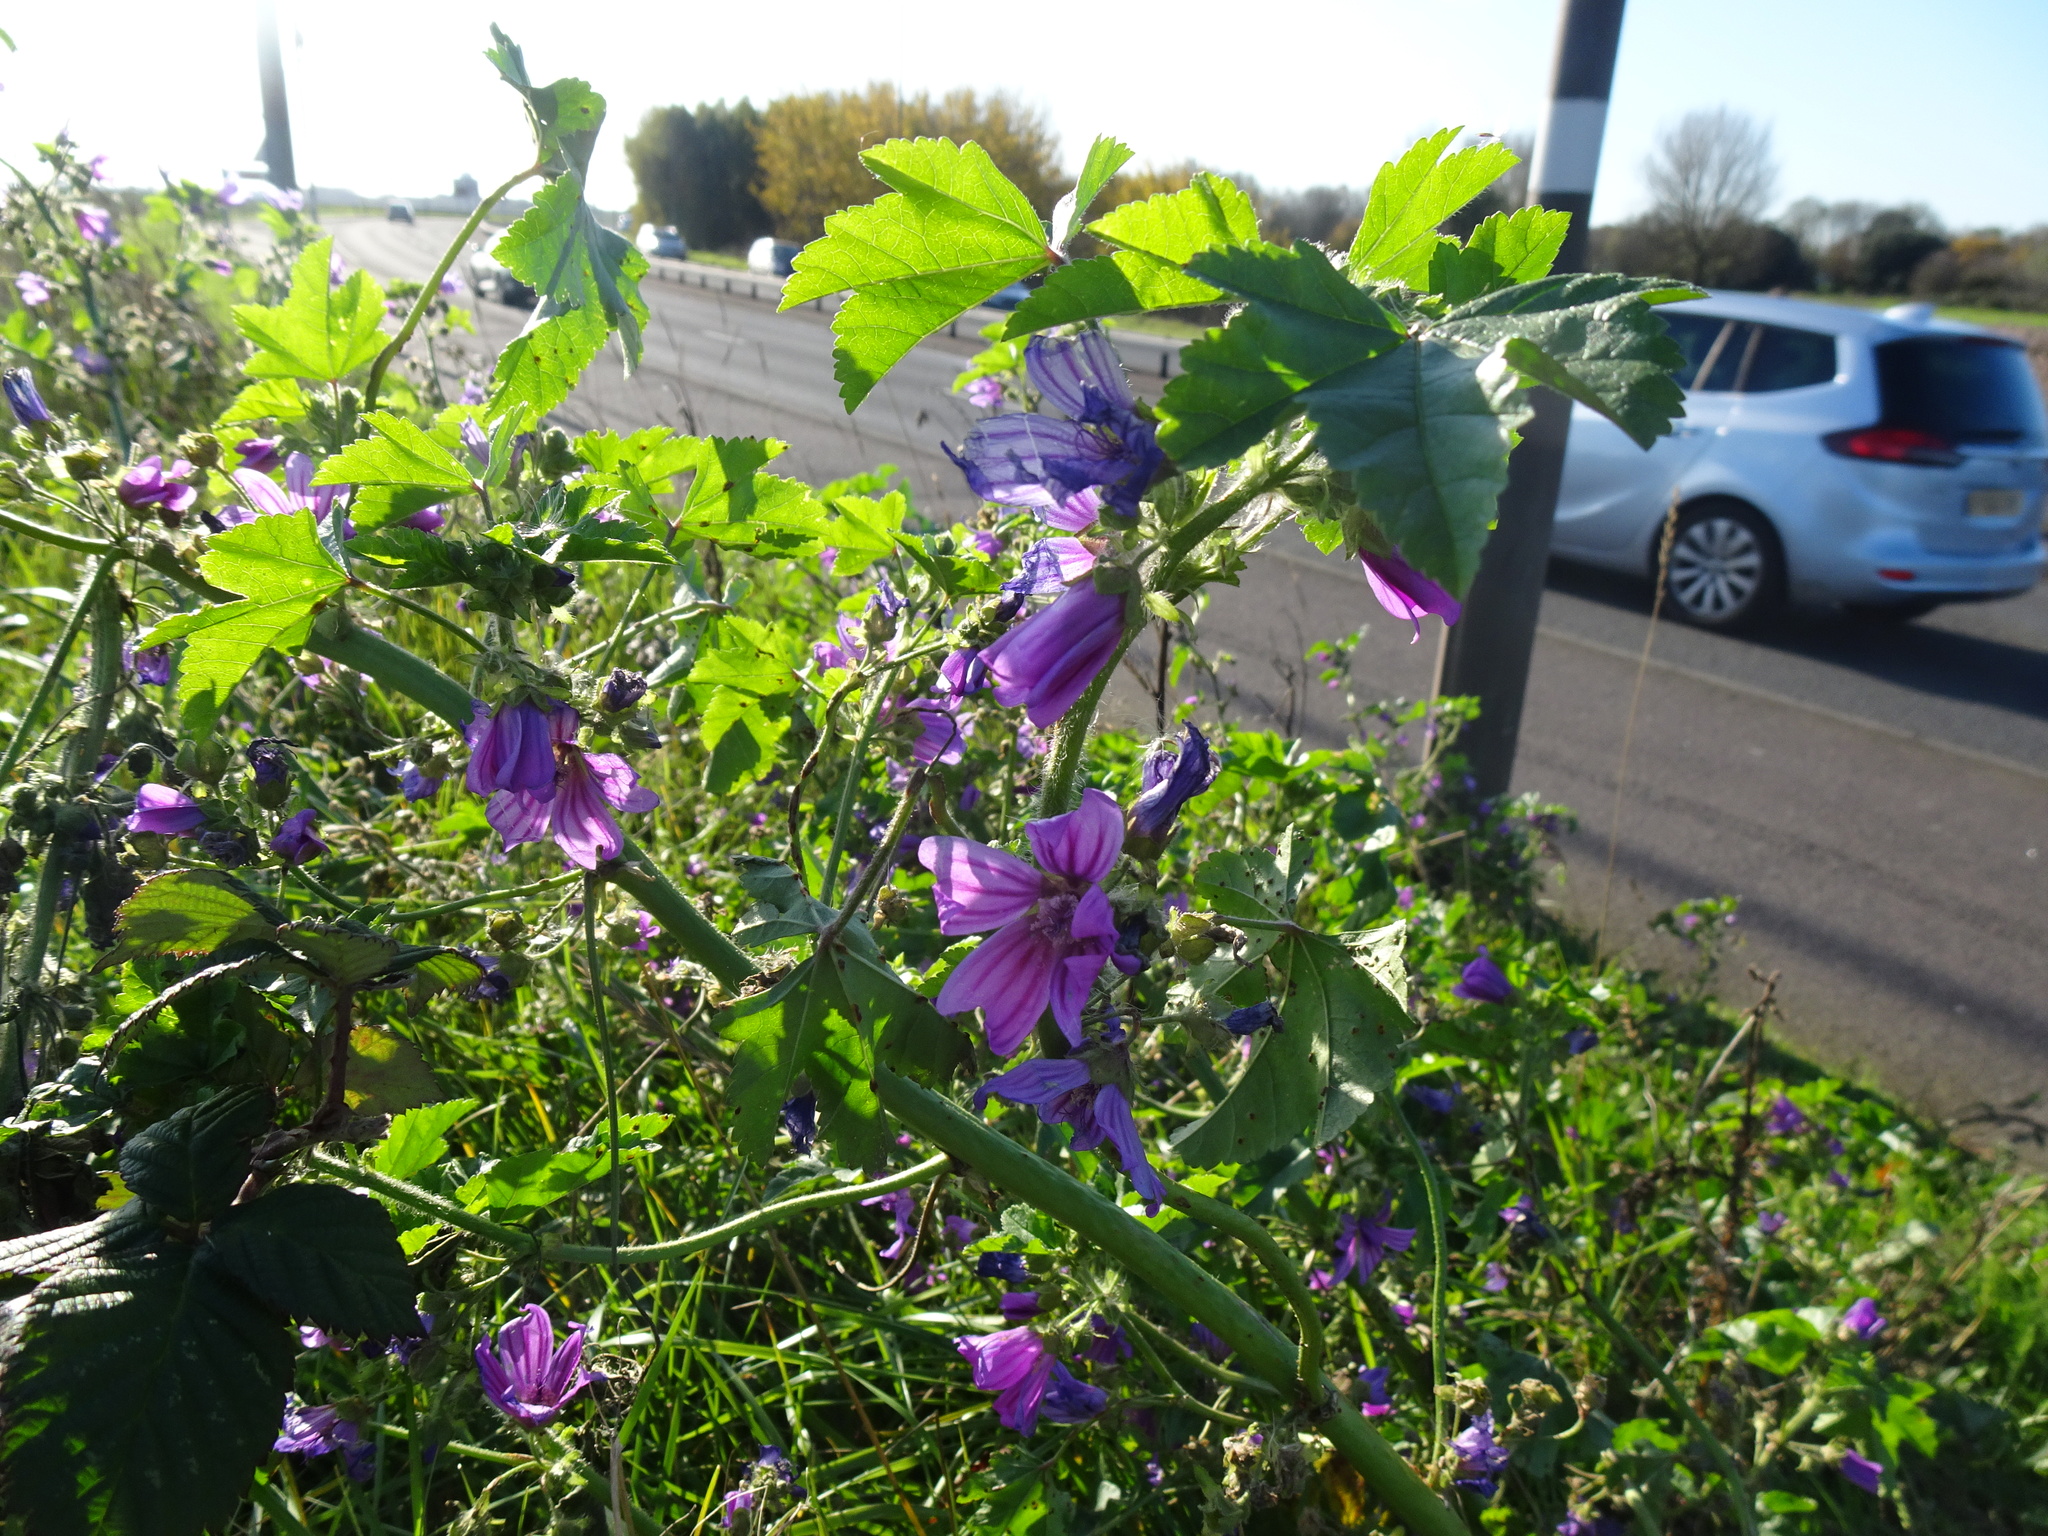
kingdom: Plantae
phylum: Tracheophyta
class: Magnoliopsida
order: Malvales
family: Malvaceae
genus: Malva
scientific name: Malva sylvestris
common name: Common mallow
